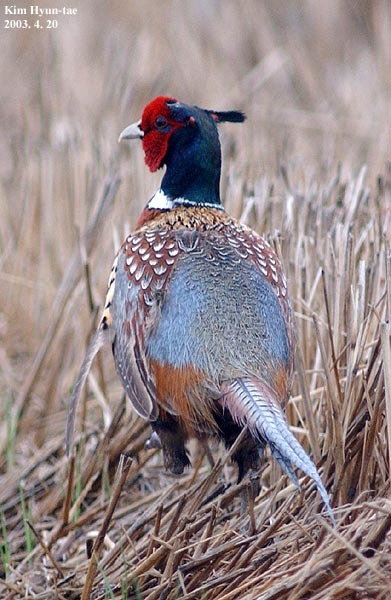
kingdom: Animalia
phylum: Chordata
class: Aves
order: Galliformes
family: Phasianidae
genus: Phasianus
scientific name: Phasianus colchicus
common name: Common pheasant
